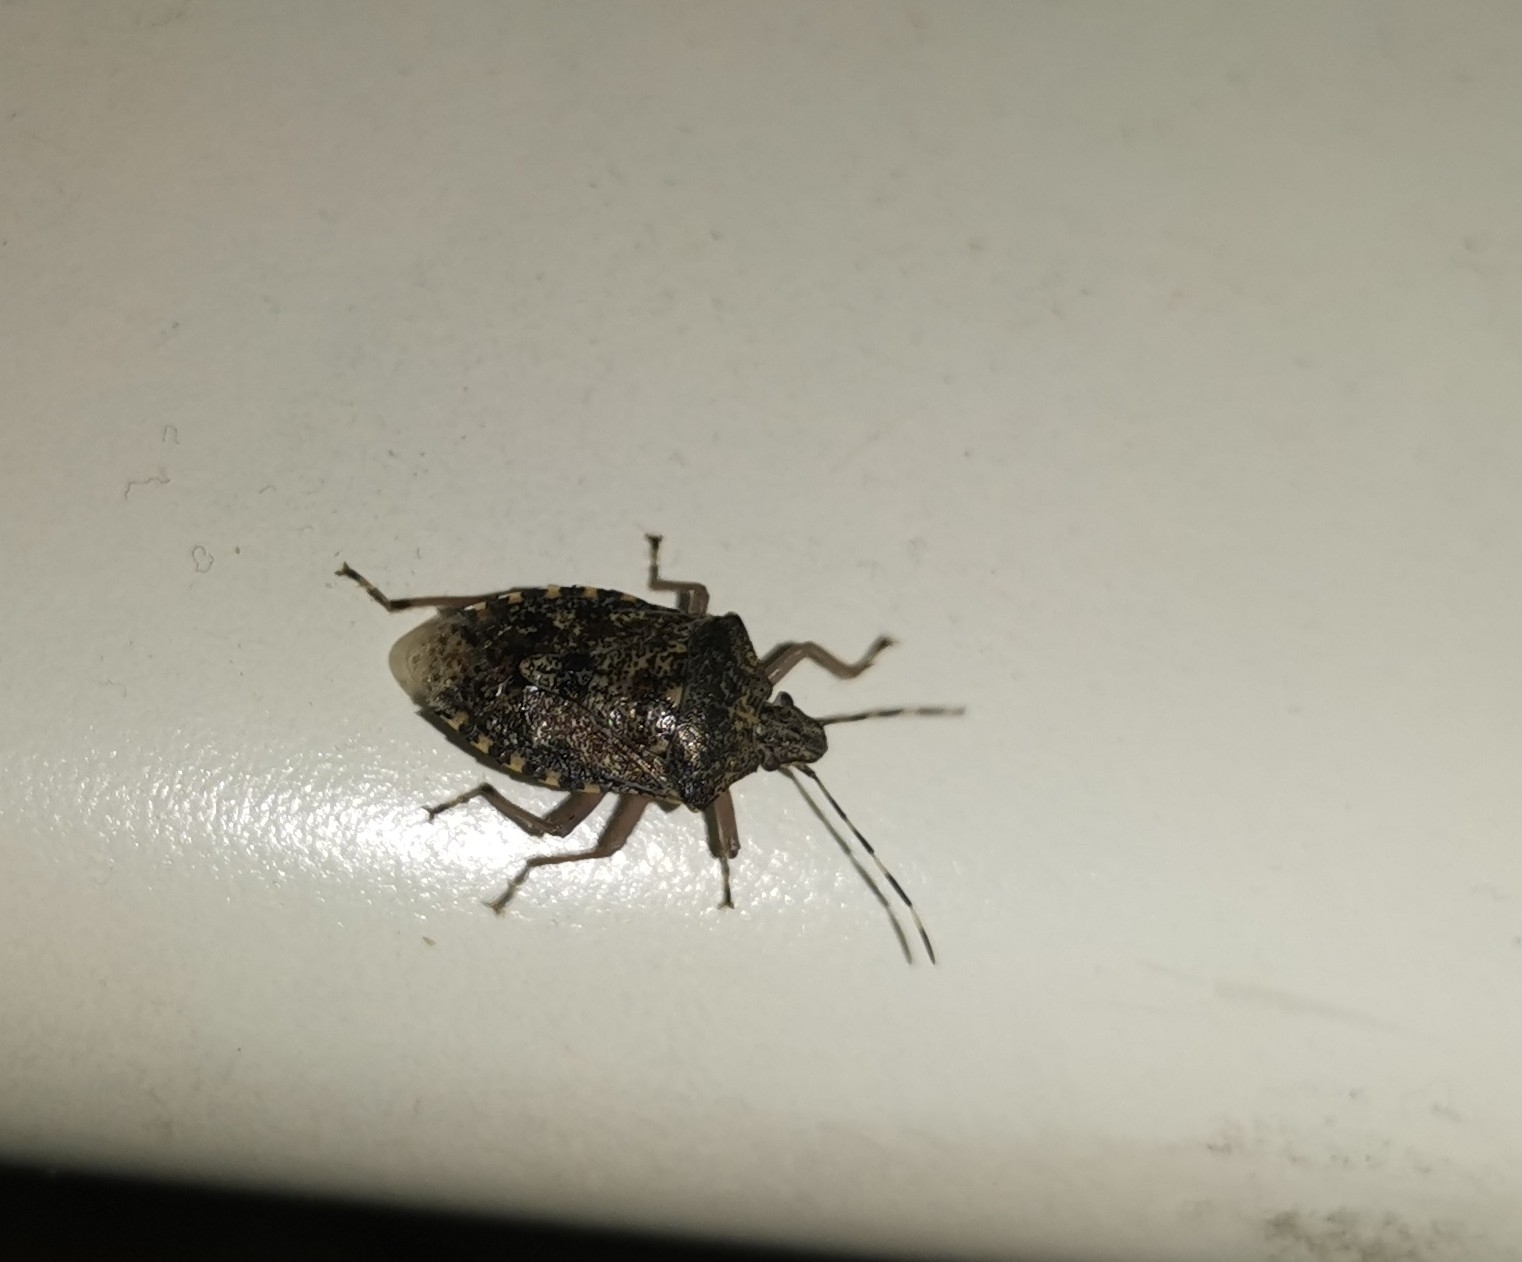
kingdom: Animalia
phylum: Arthropoda
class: Insecta
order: Hemiptera
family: Pentatomidae
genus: Rhaphigaster
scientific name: Rhaphigaster nebulosa
